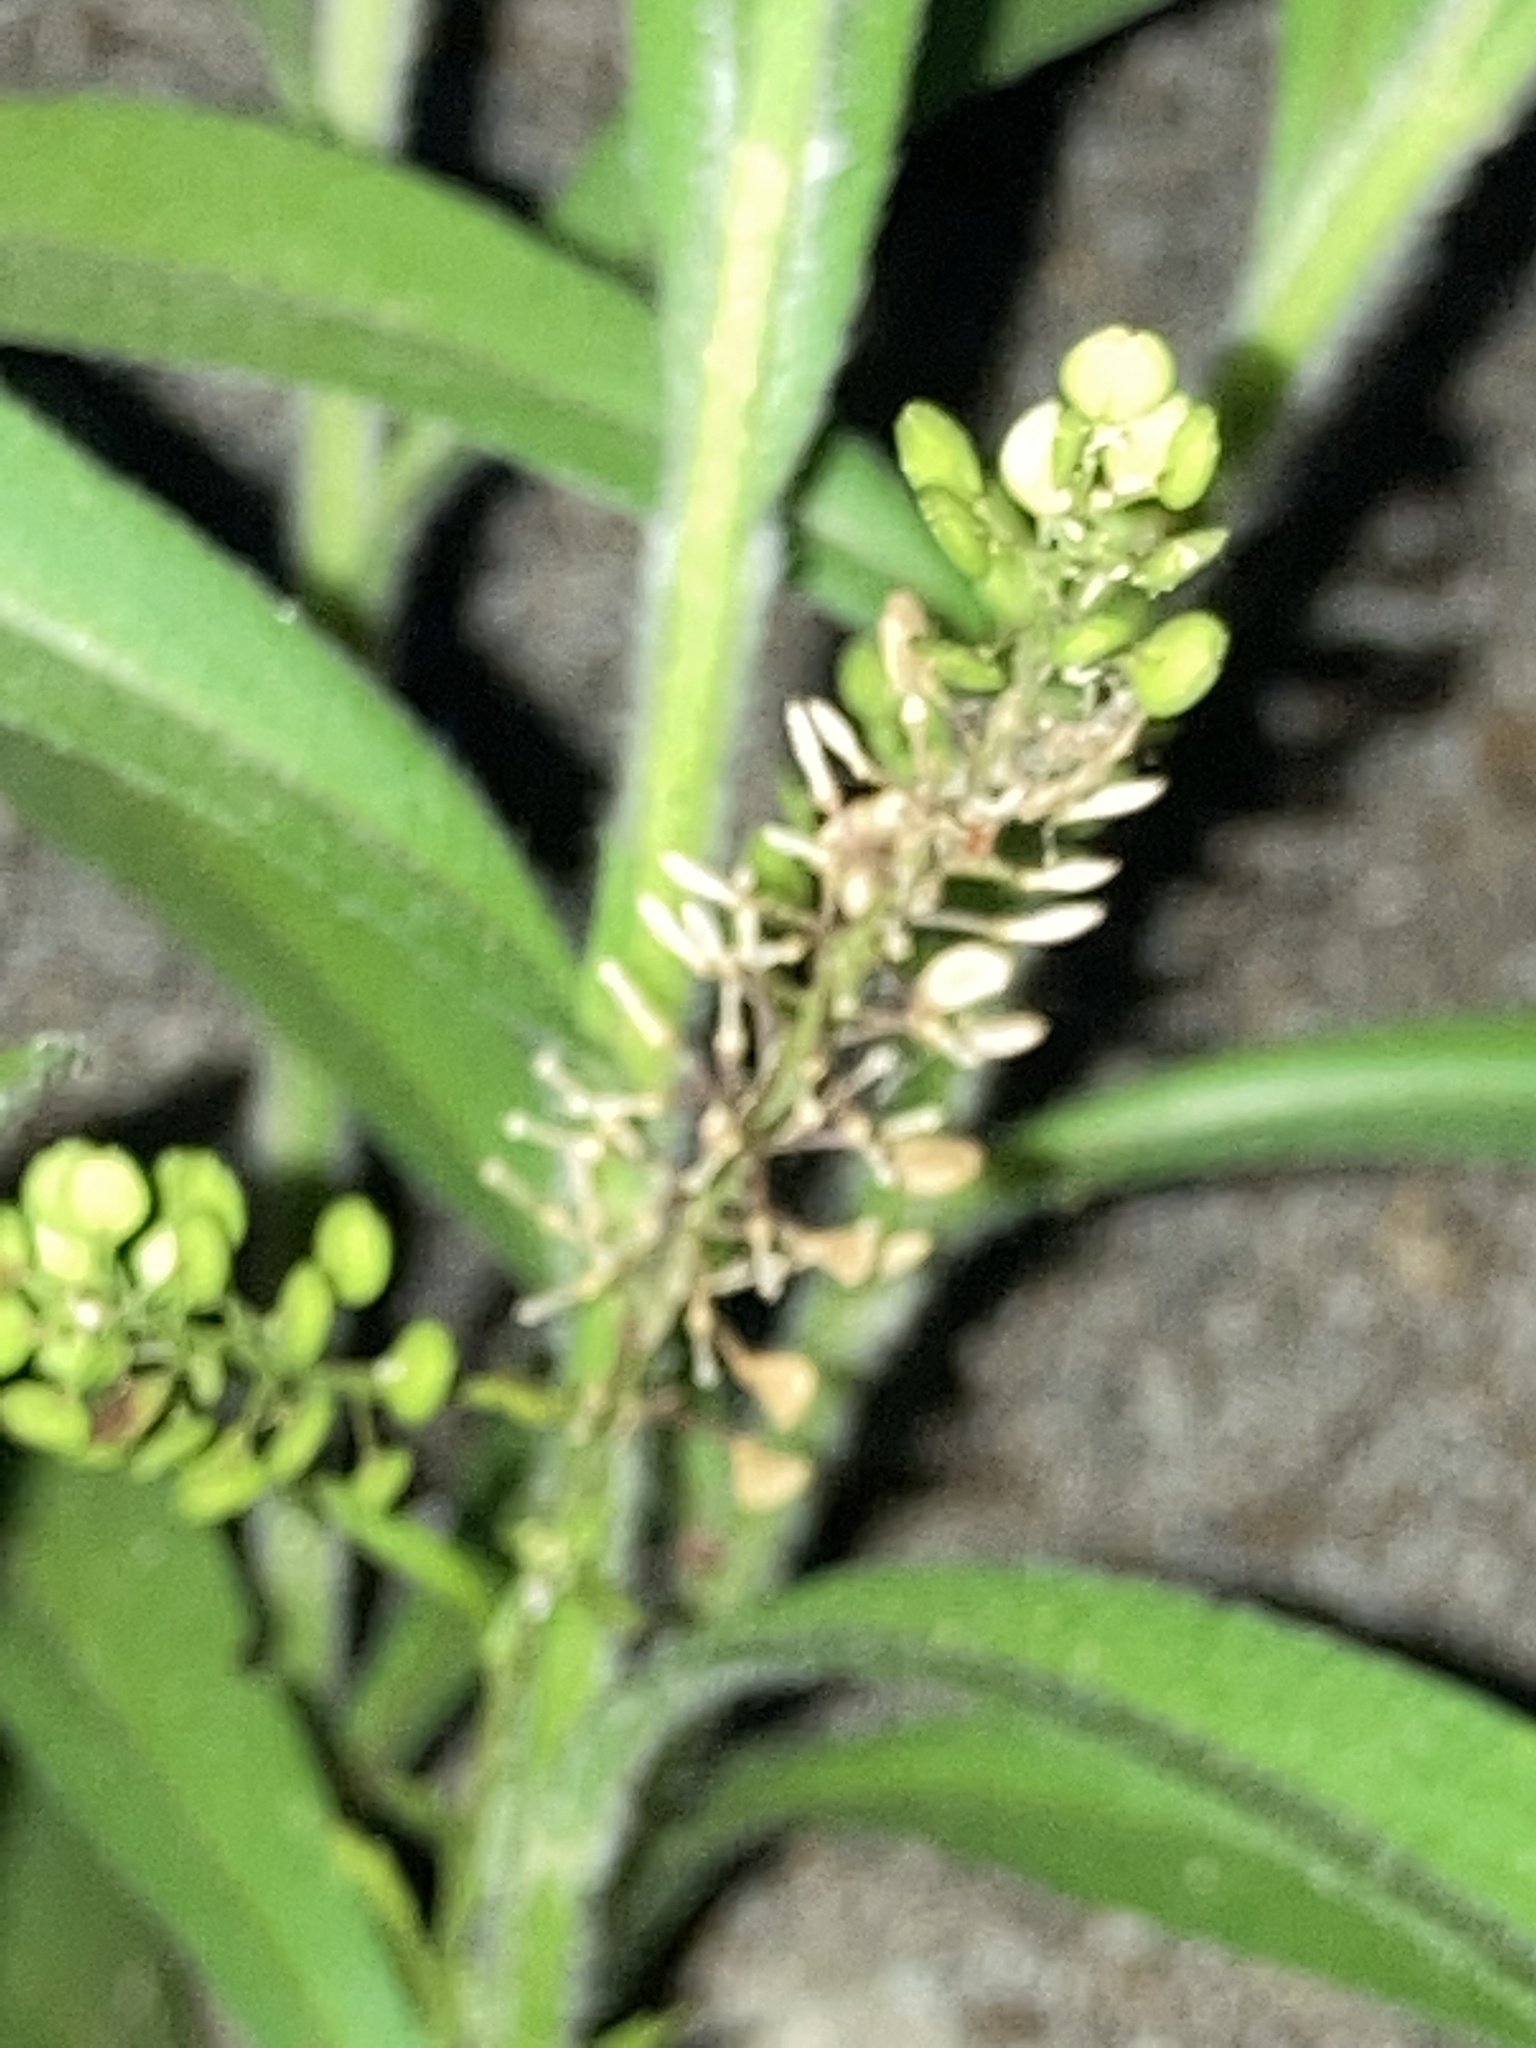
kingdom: Plantae
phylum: Tracheophyta
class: Magnoliopsida
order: Brassicales
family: Brassicaceae
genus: Lepidium
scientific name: Lepidium virginicum
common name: Least pepperwort
